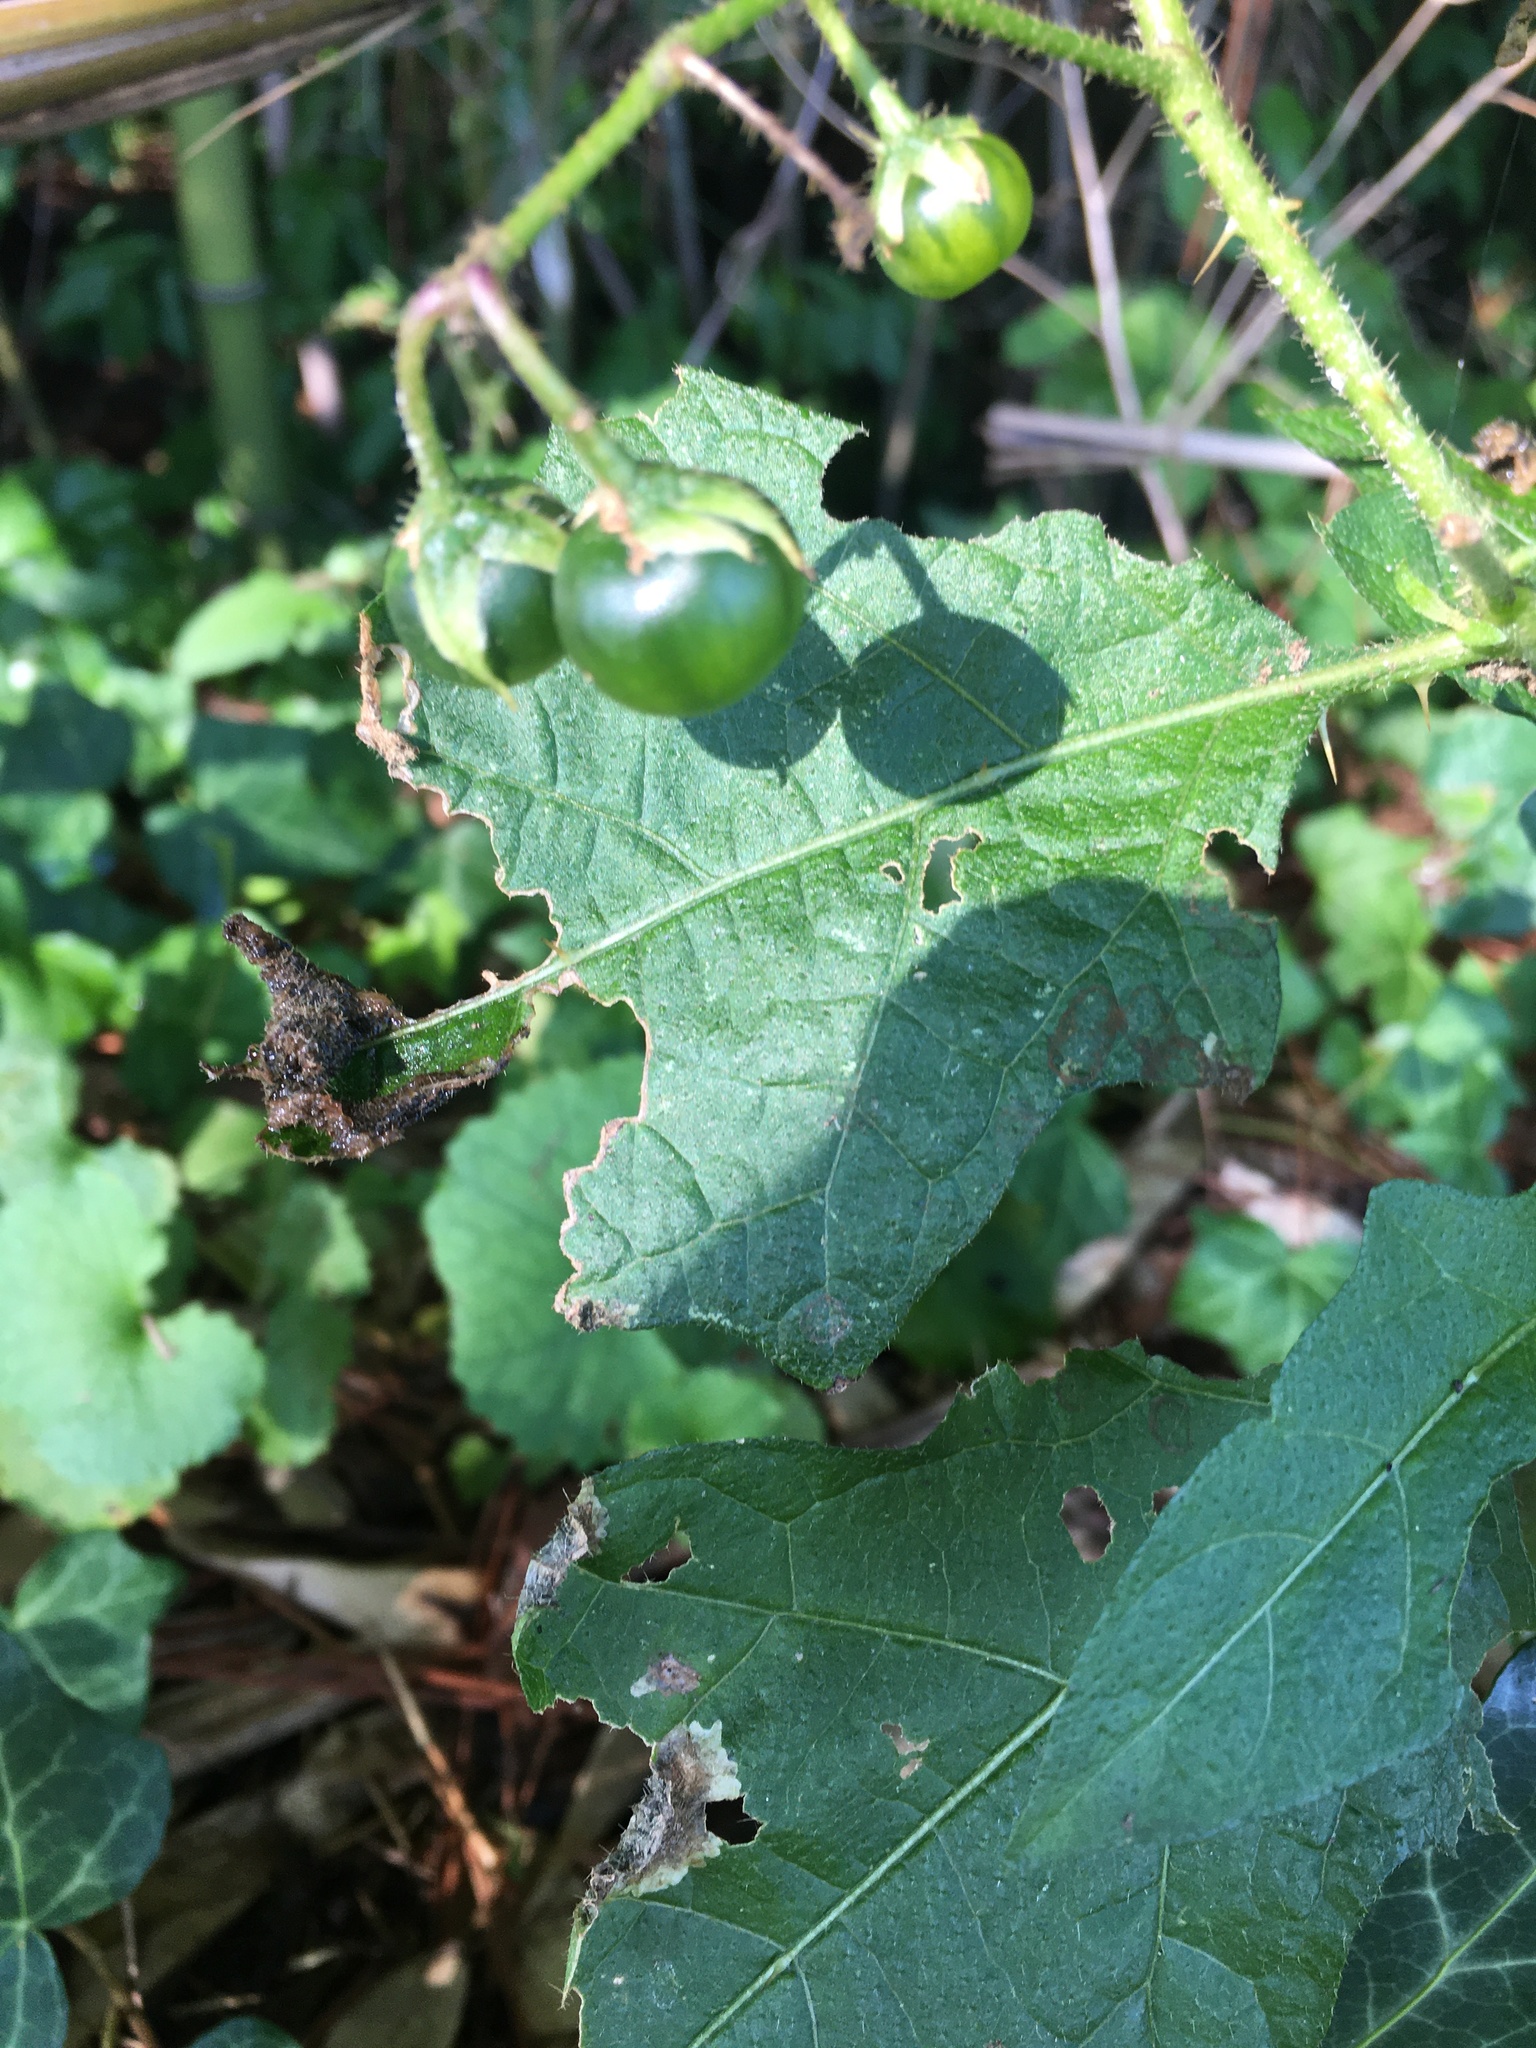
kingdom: Plantae
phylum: Tracheophyta
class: Magnoliopsida
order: Solanales
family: Solanaceae
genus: Solanum
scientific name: Solanum carolinense
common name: Horse-nettle
